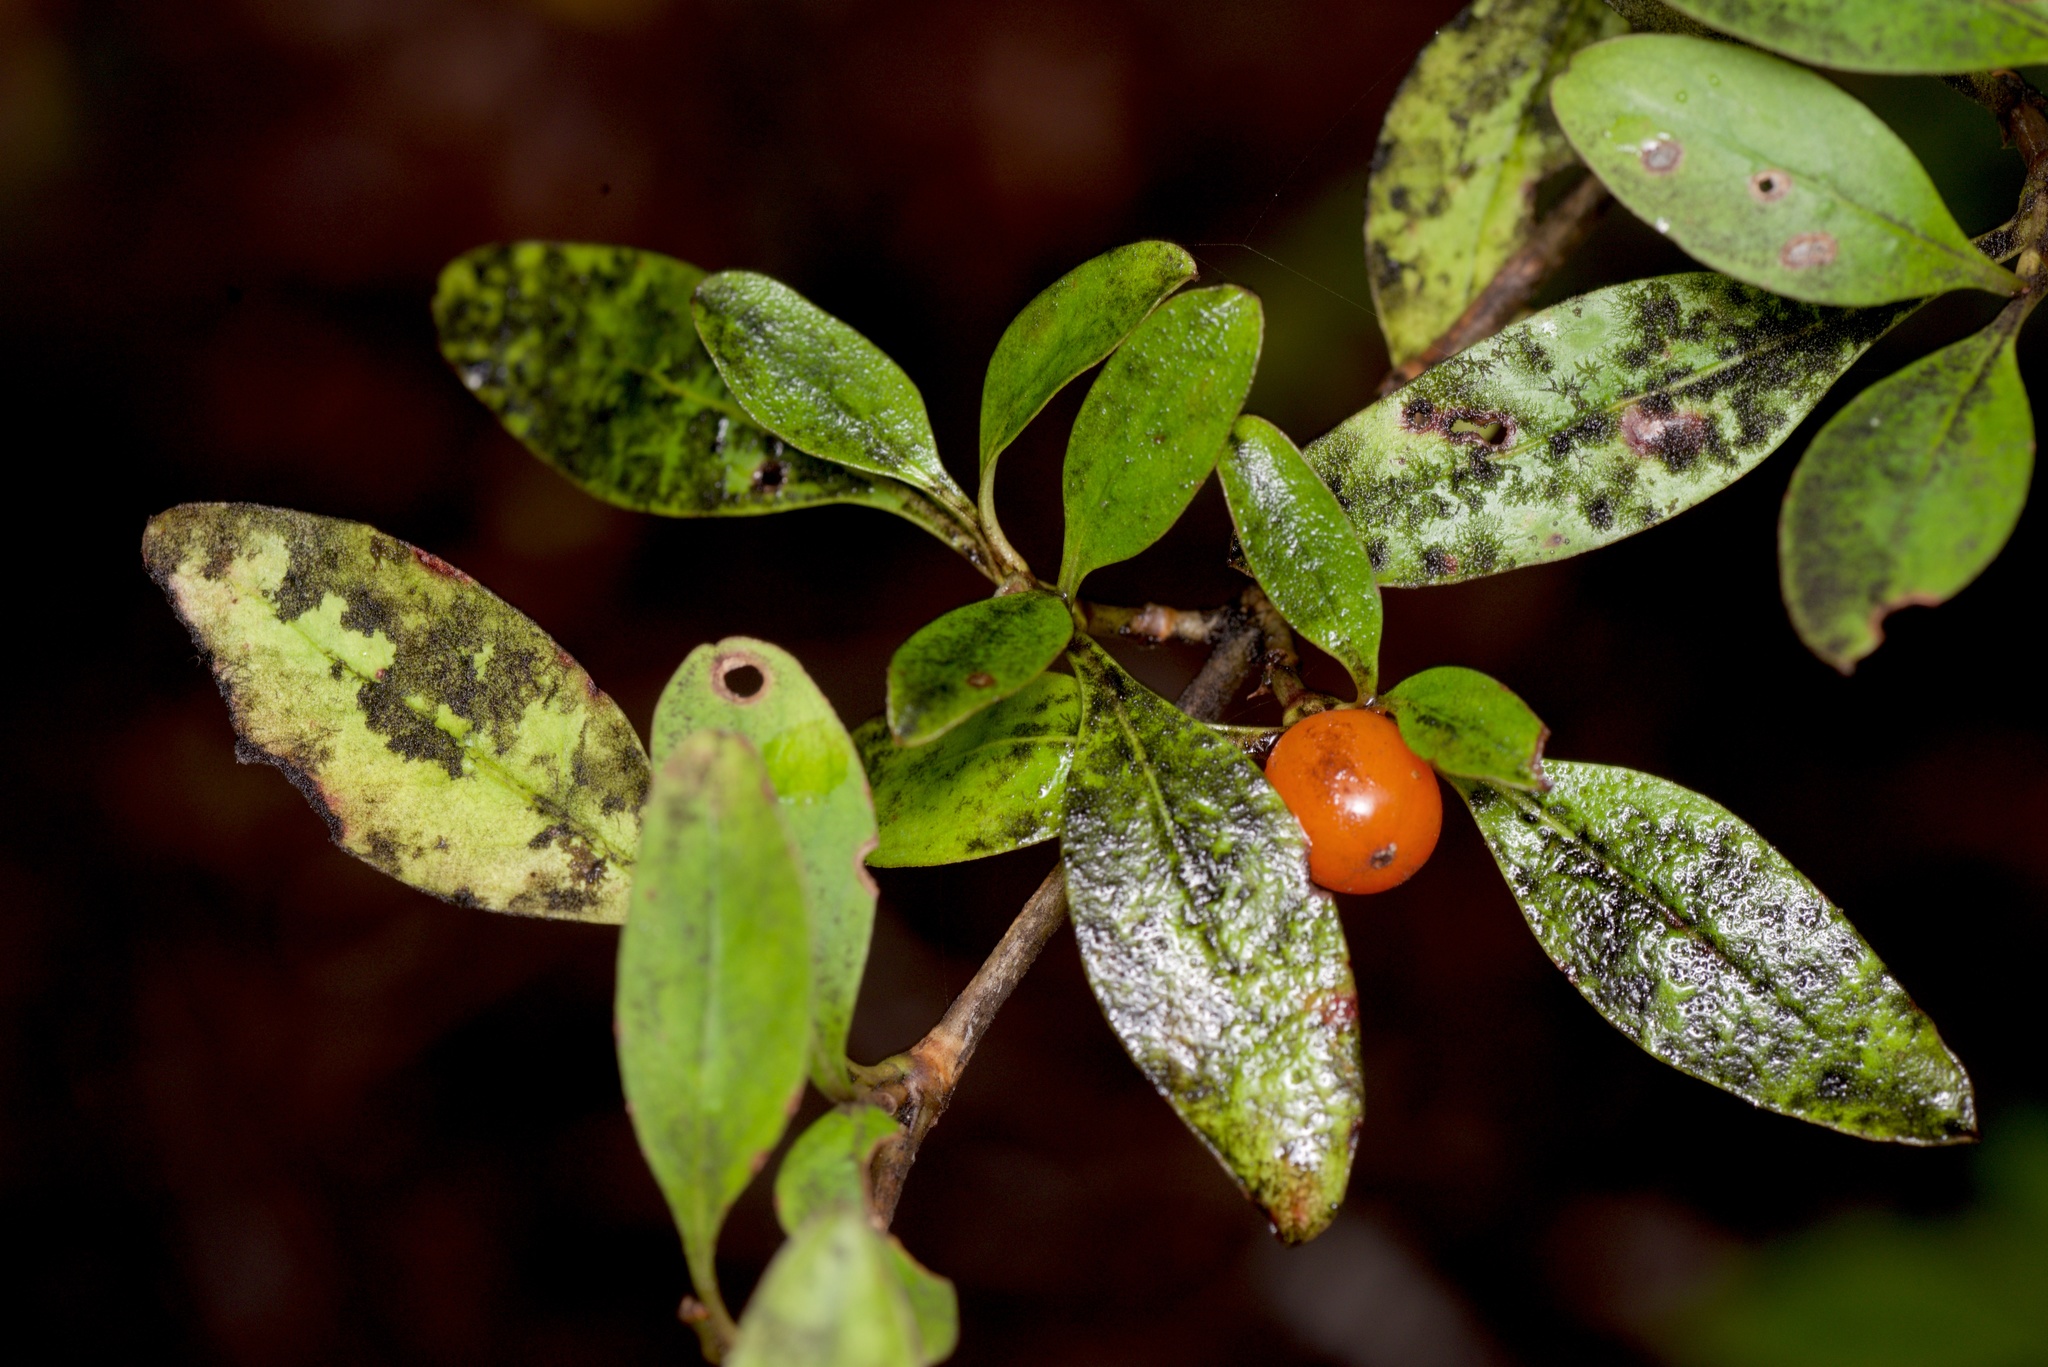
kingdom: Plantae
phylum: Tracheophyta
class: Magnoliopsida
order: Gentianales
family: Rubiaceae
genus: Coprosma
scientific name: Coprosma foetidissima
